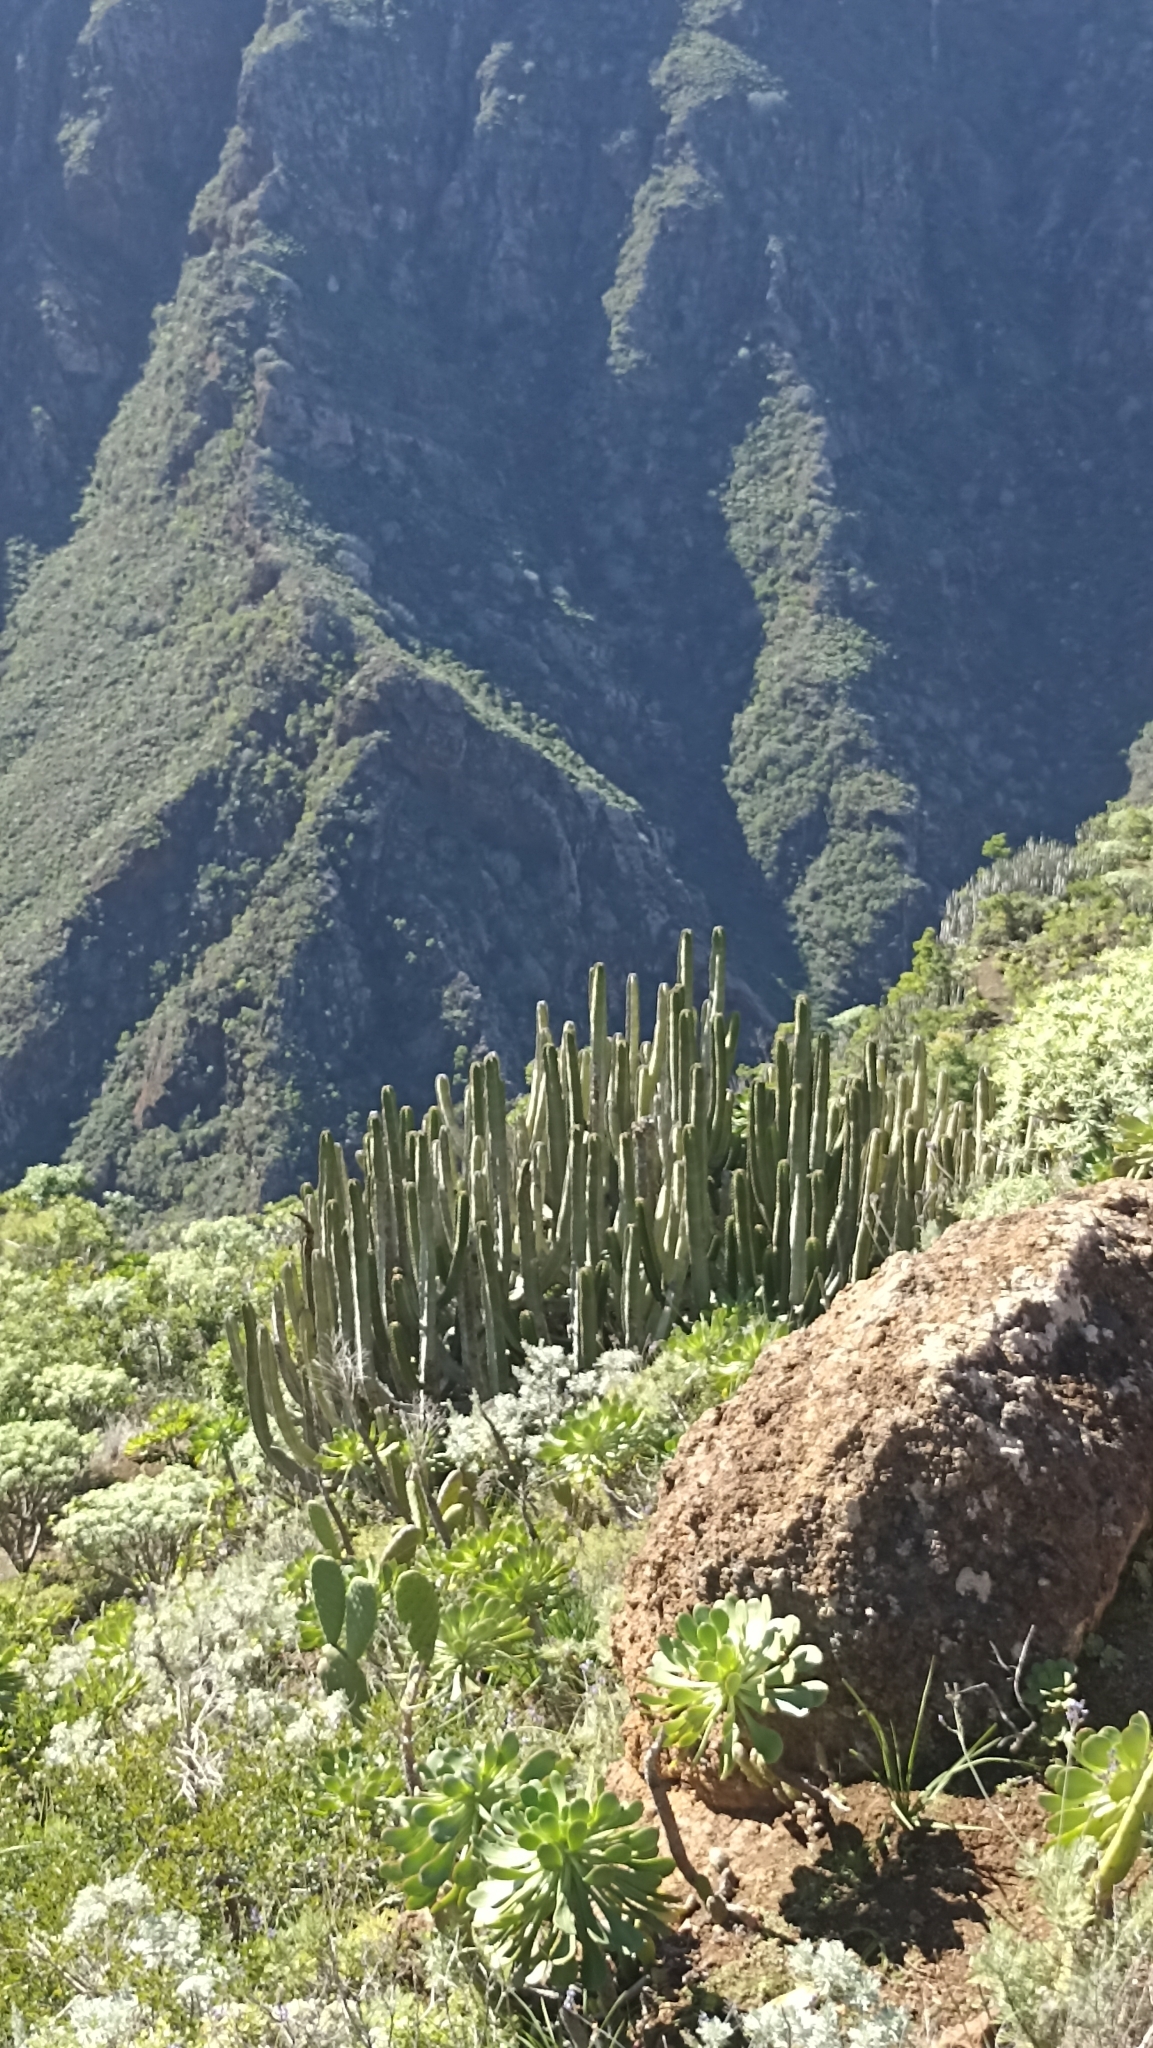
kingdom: Plantae
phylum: Tracheophyta
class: Magnoliopsida
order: Malpighiales
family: Euphorbiaceae
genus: Euphorbia
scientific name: Euphorbia canariensis
